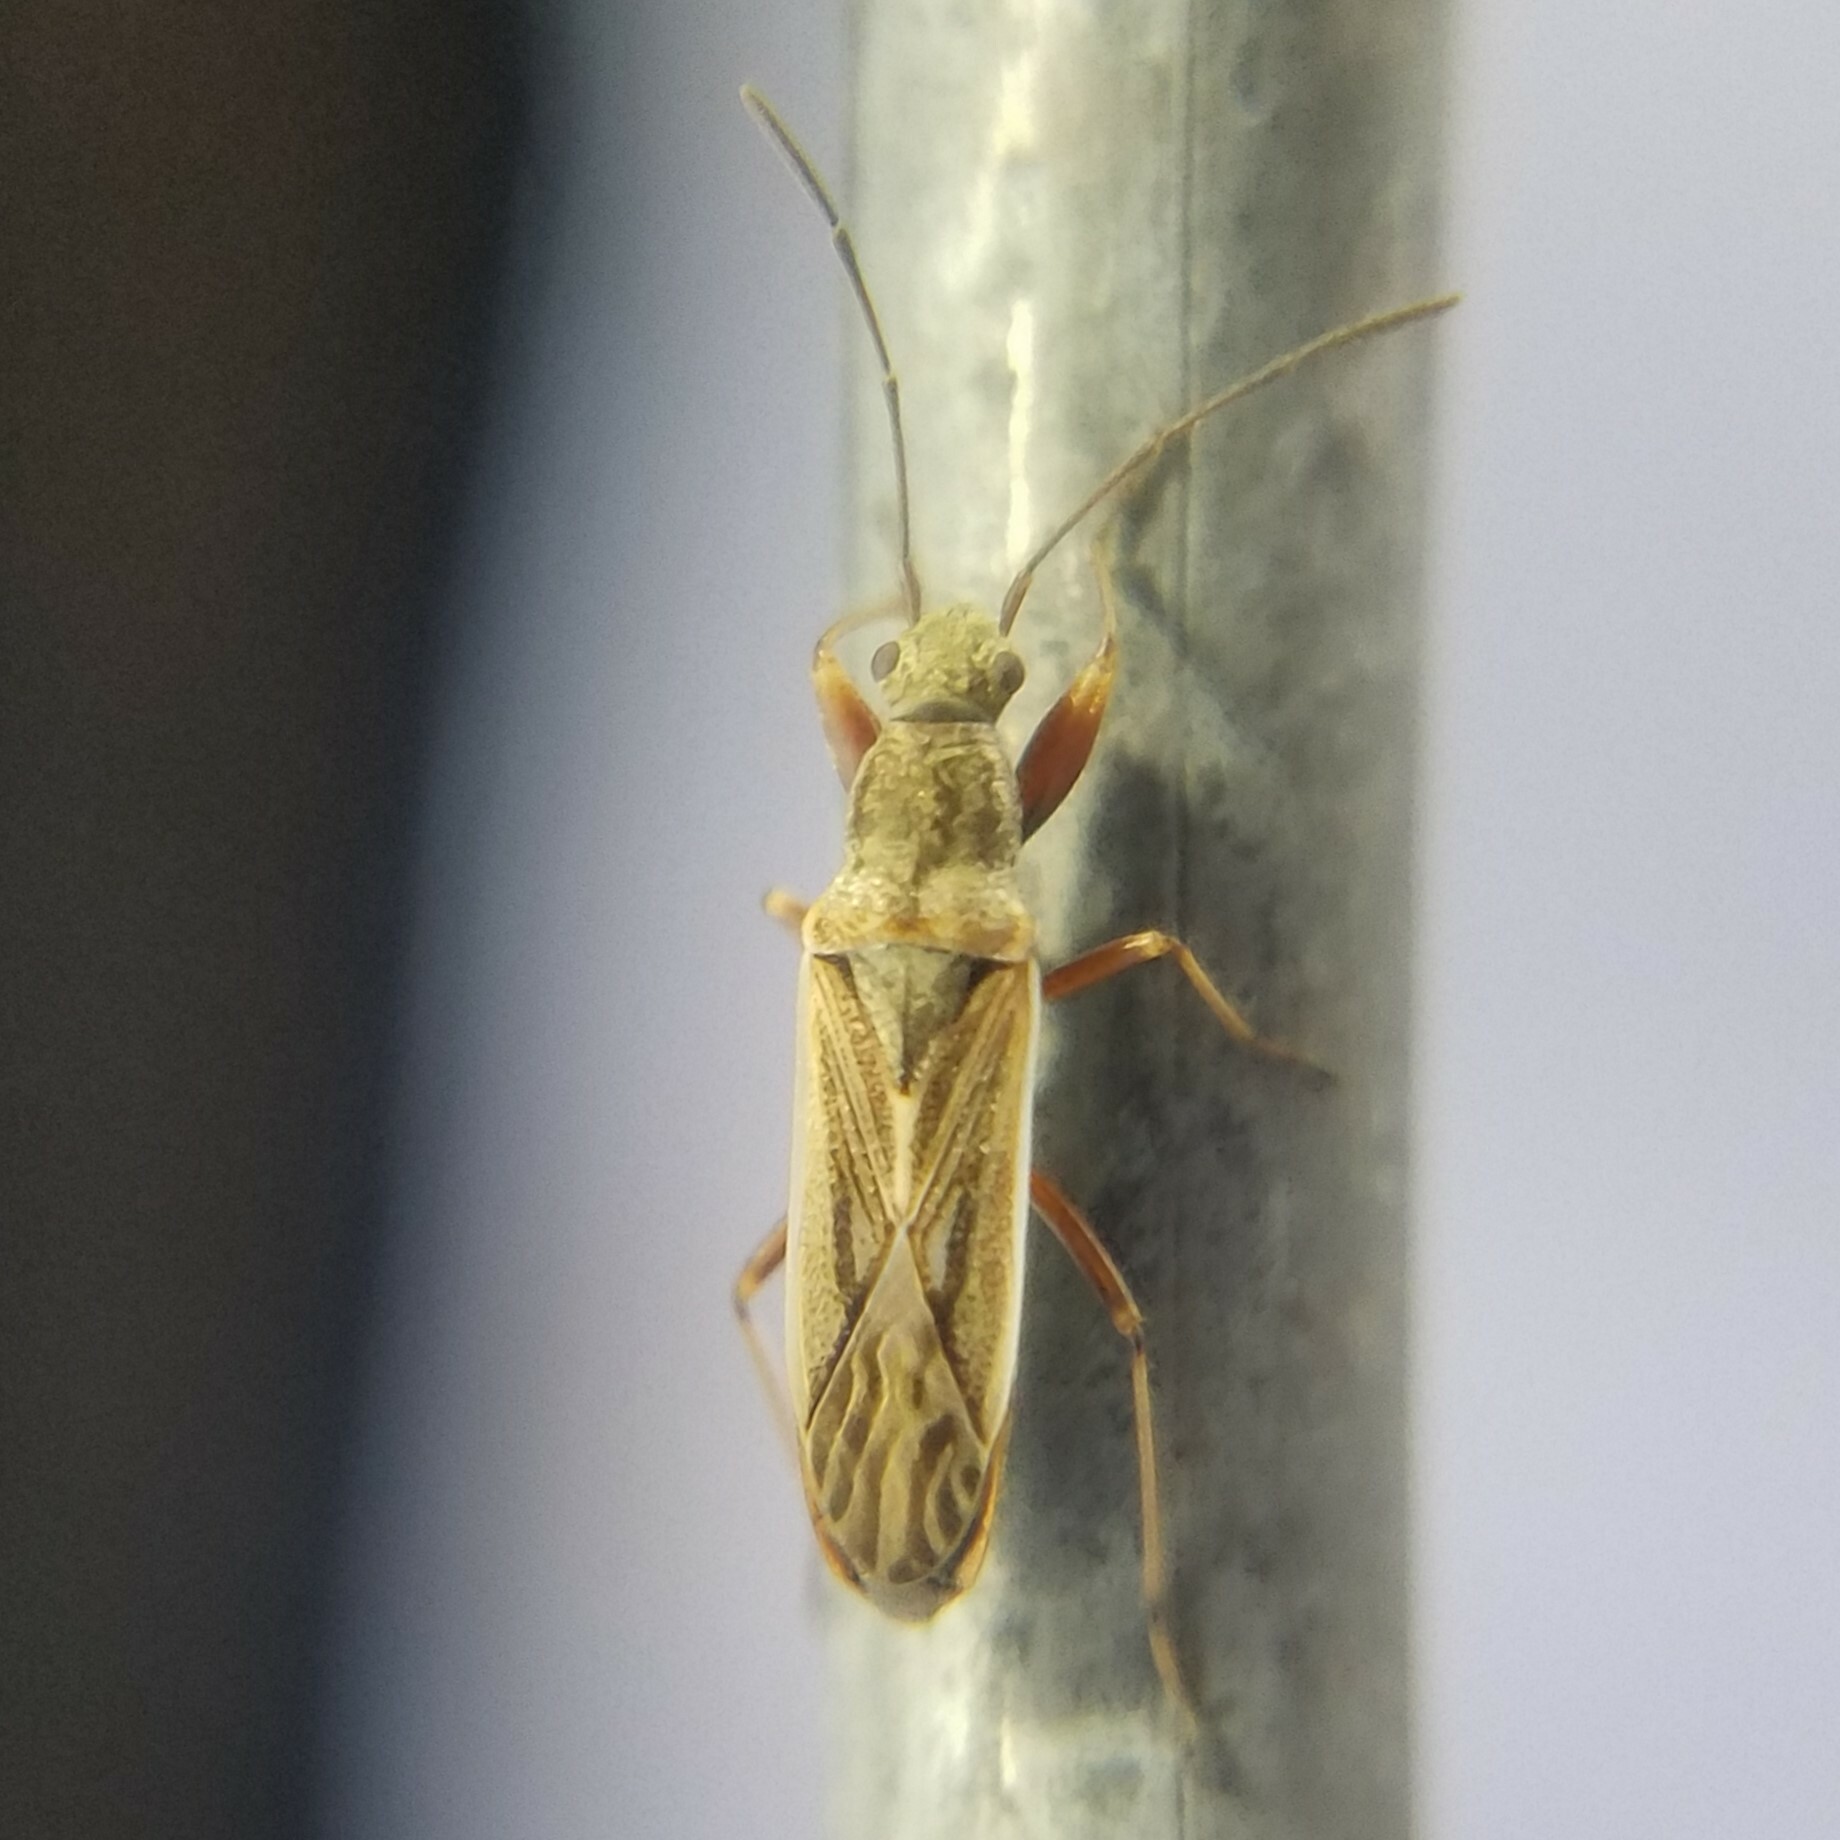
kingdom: Animalia
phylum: Arthropoda
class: Insecta
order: Hemiptera
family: Rhyparochromidae
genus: Paromius
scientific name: Paromius longulus
